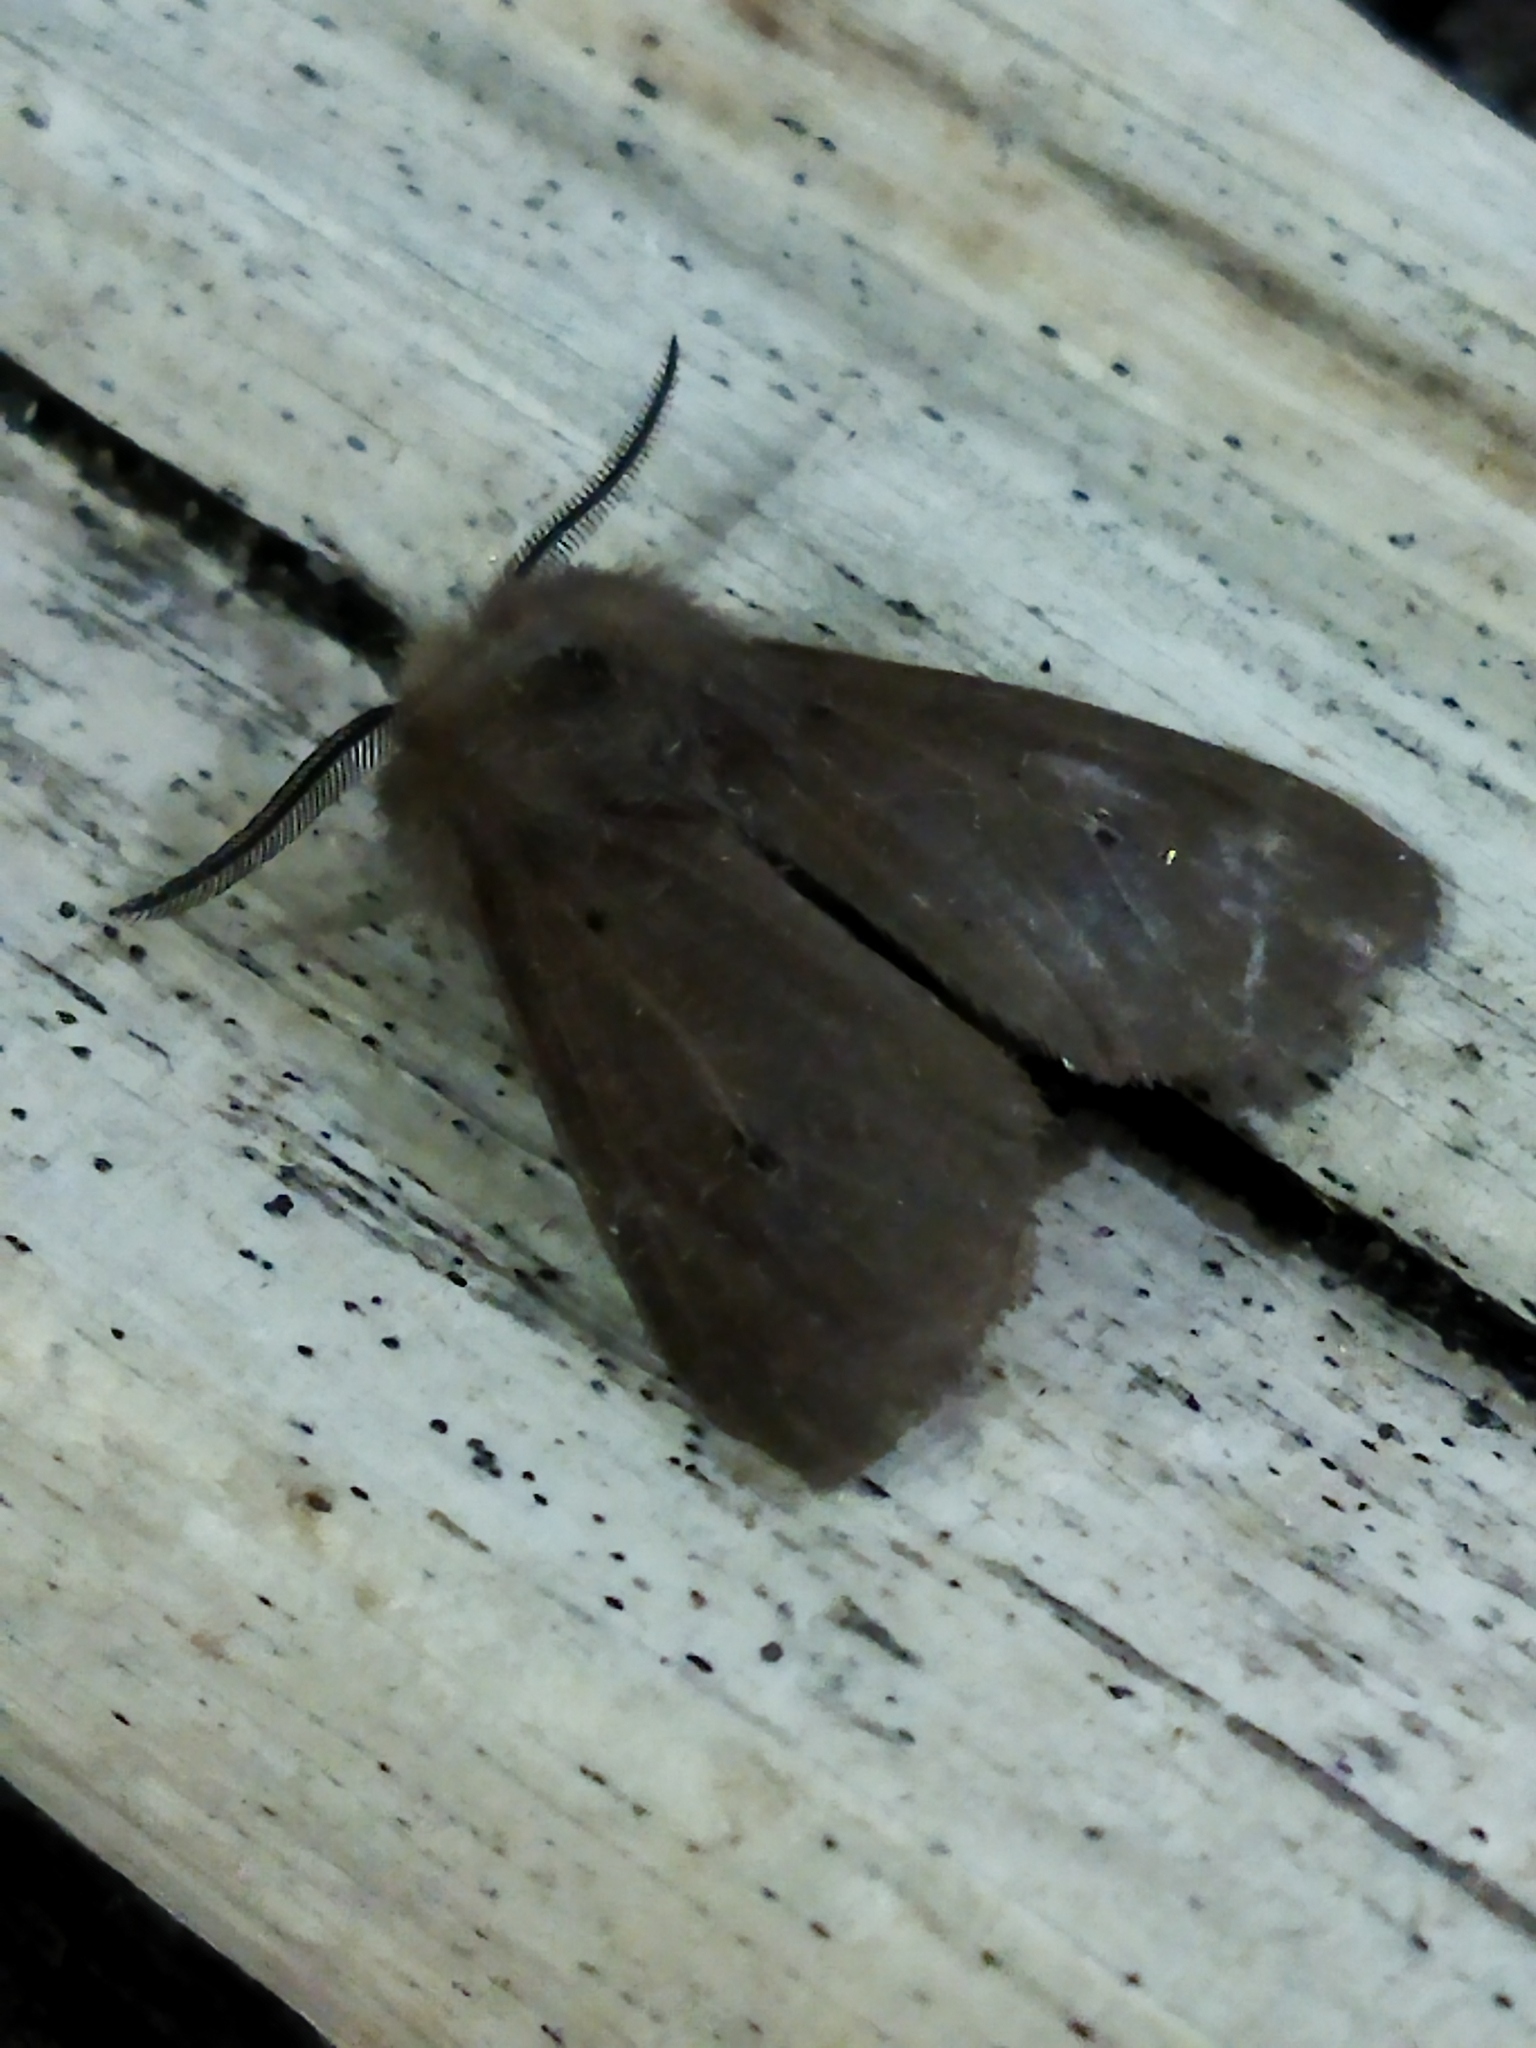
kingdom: Animalia
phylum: Arthropoda
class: Insecta
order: Lepidoptera
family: Erebidae
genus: Diaphora
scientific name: Diaphora mendica
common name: Muslin moth
